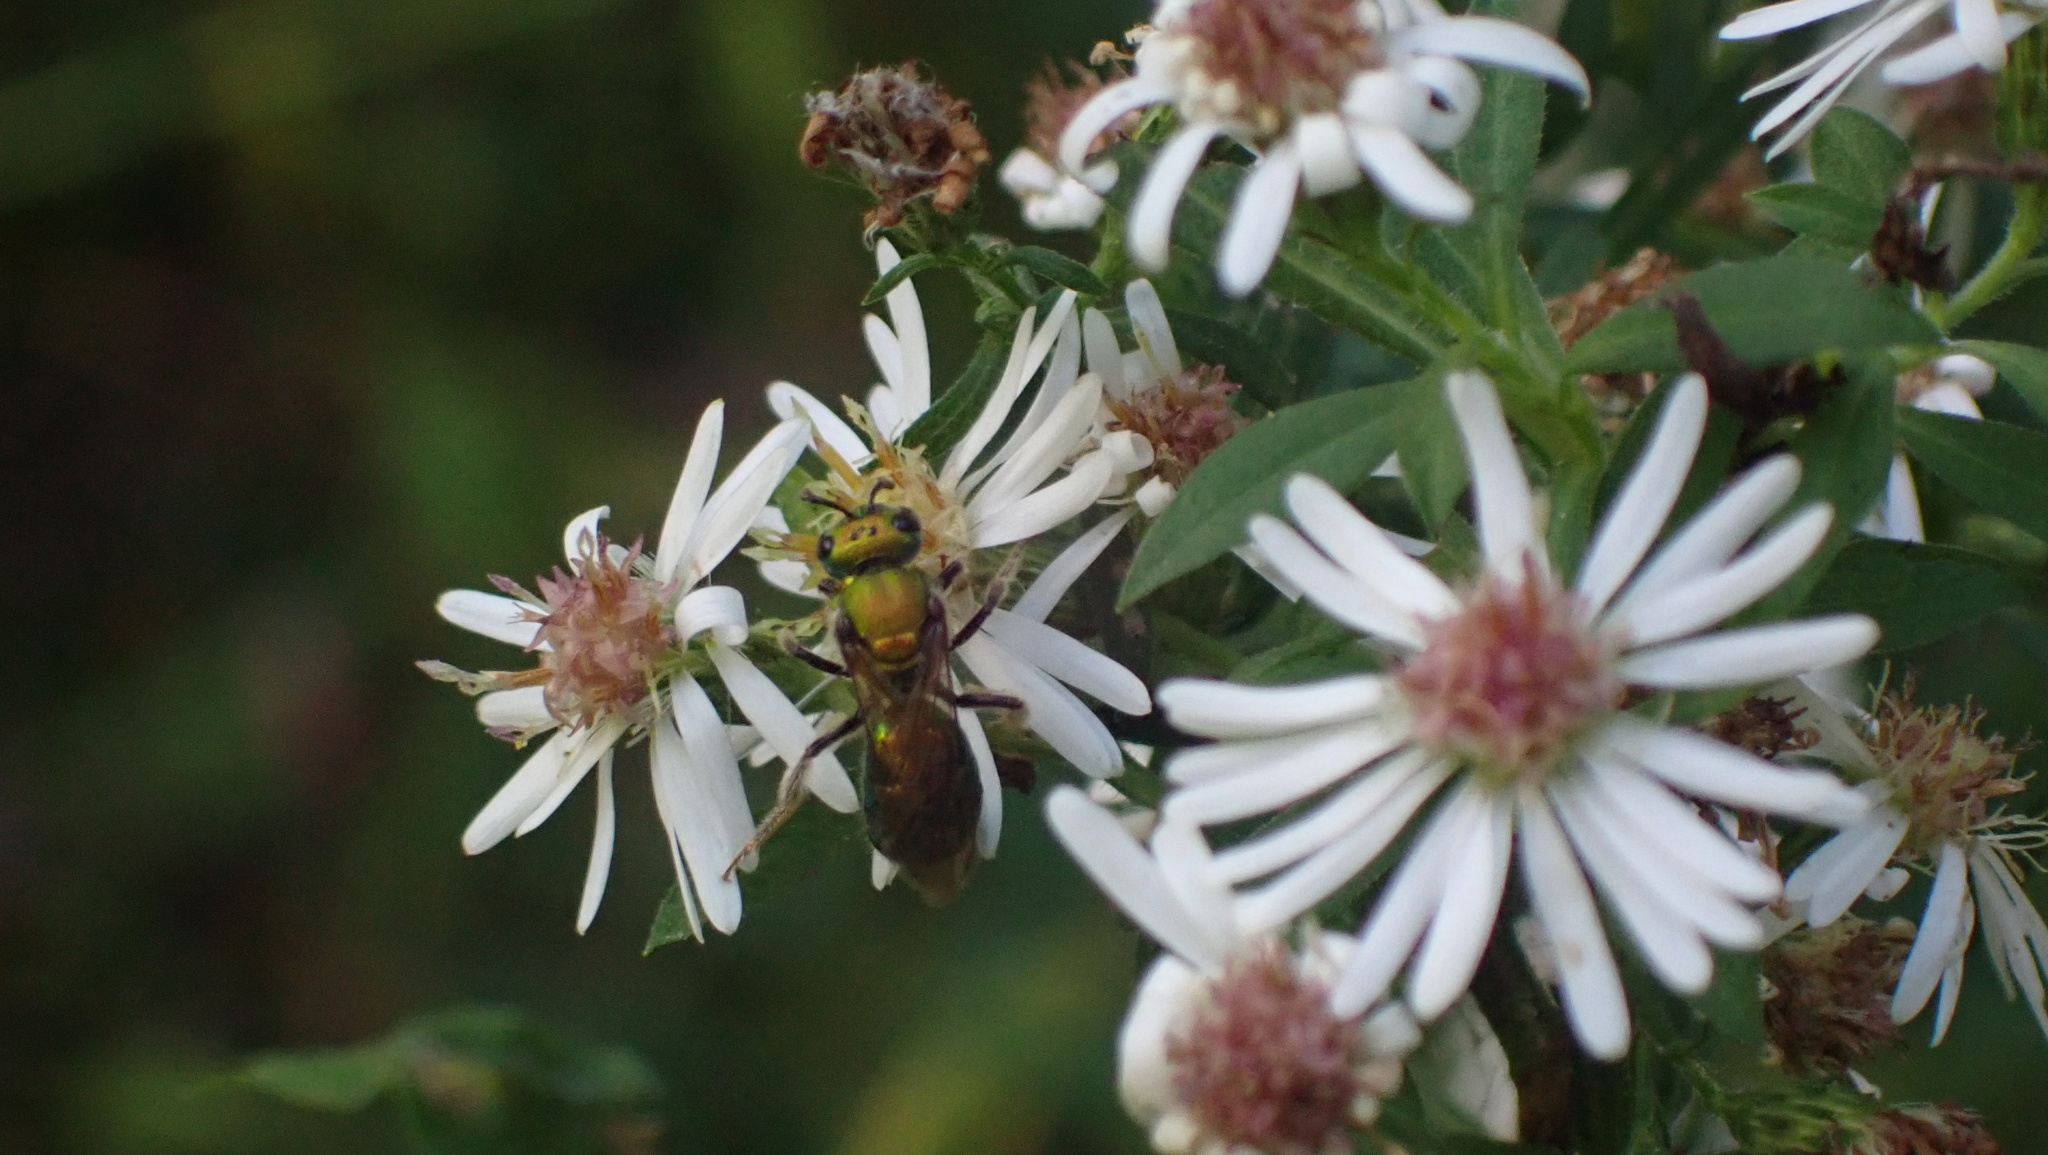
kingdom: Animalia
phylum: Arthropoda
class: Insecta
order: Hymenoptera
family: Halictidae
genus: Augochlora
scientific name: Augochlora pura
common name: Pure green sweat bee
